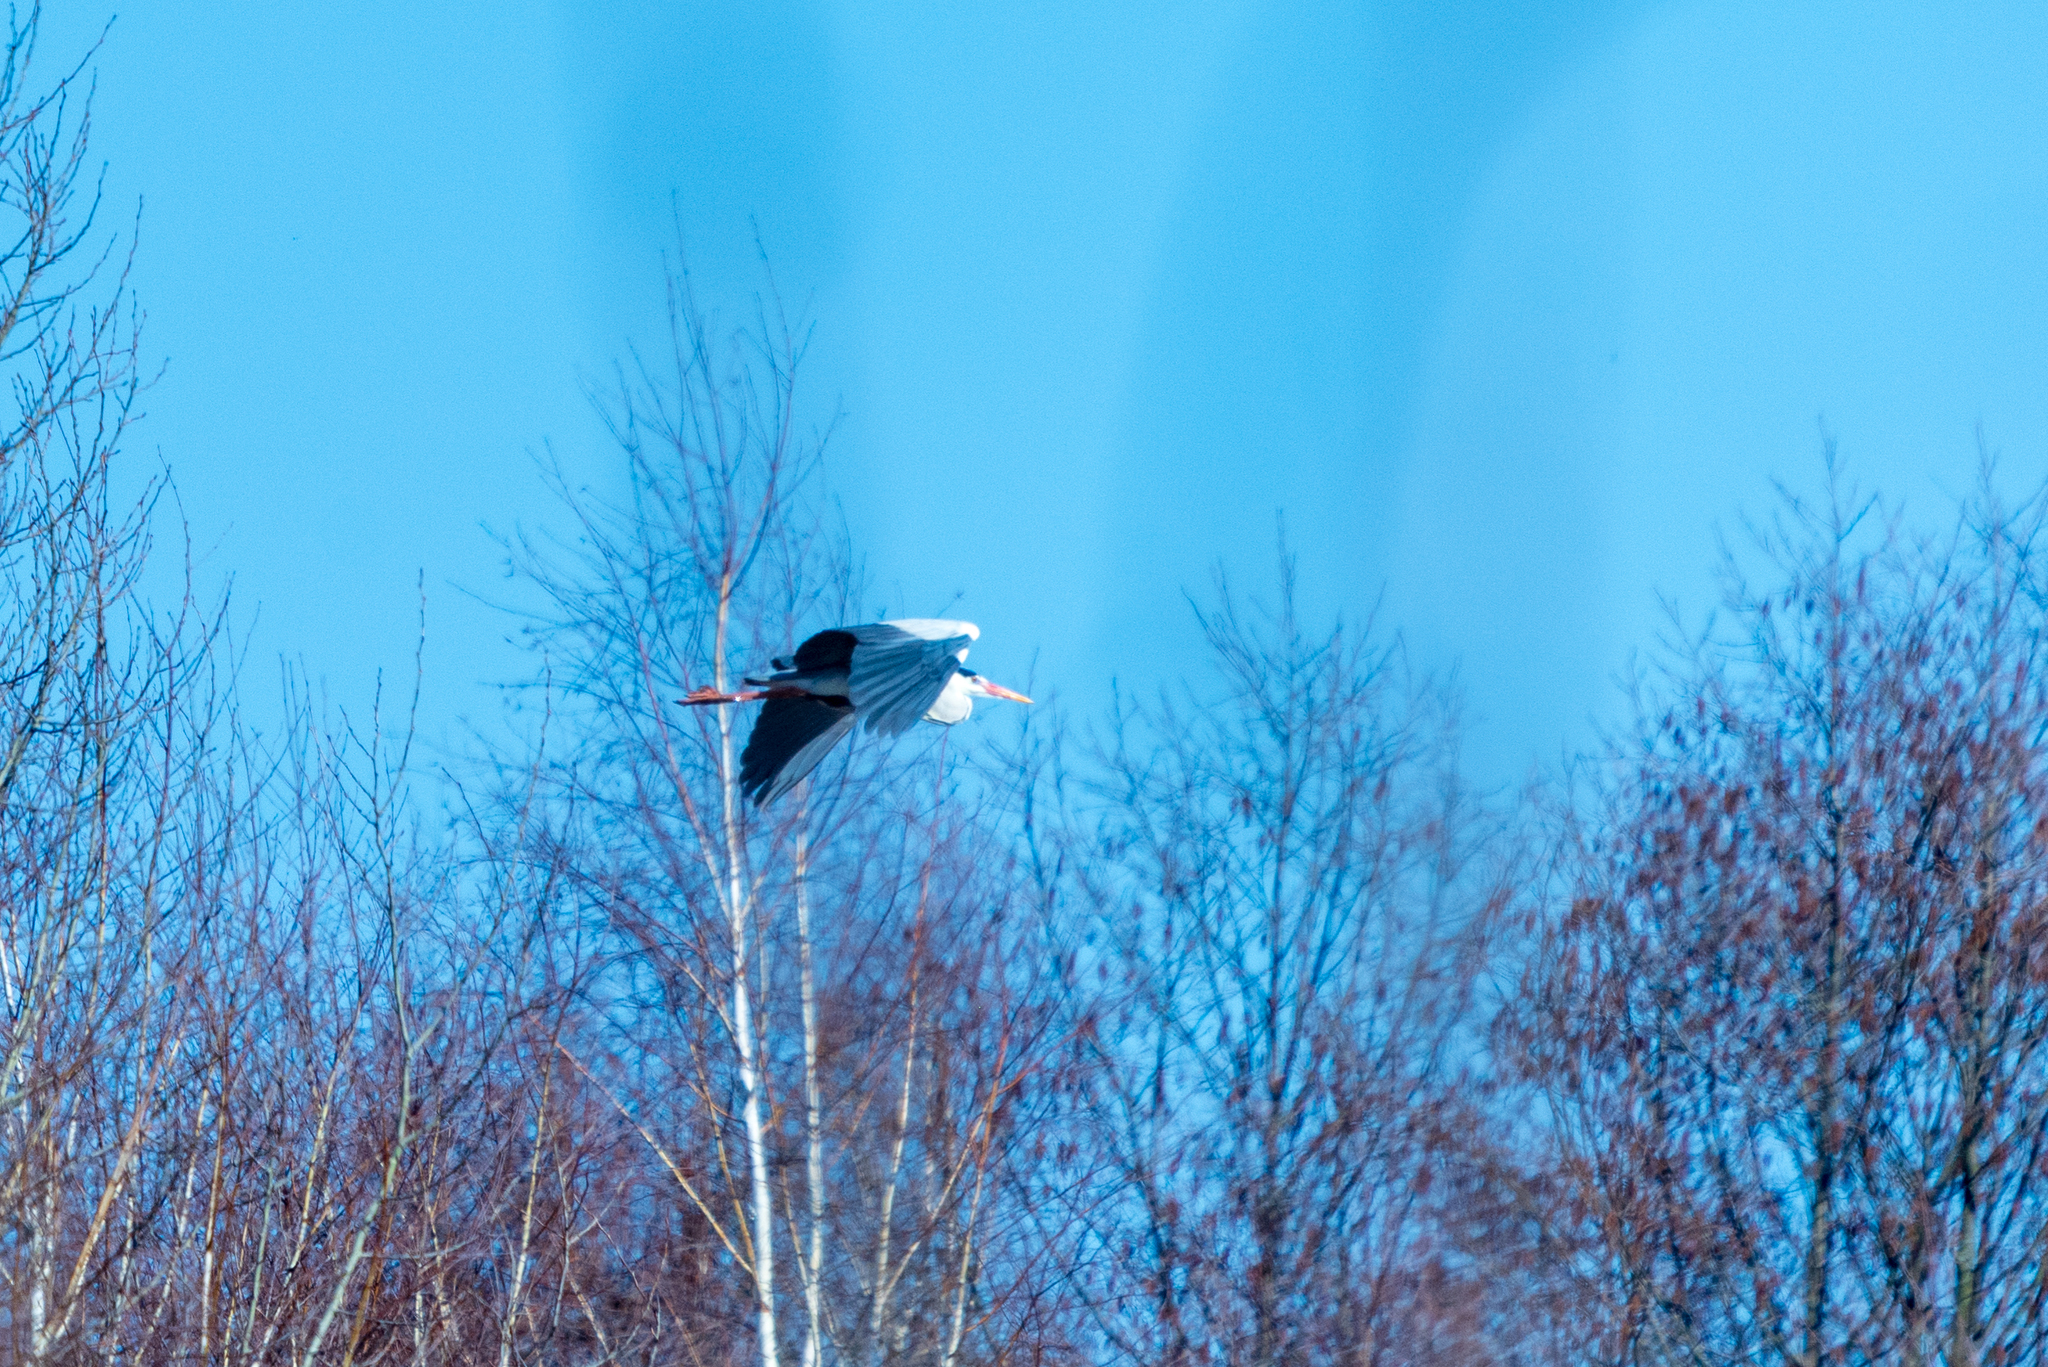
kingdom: Animalia
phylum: Chordata
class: Aves
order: Pelecaniformes
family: Ardeidae
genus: Ardea
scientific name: Ardea cinerea
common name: Grey heron
